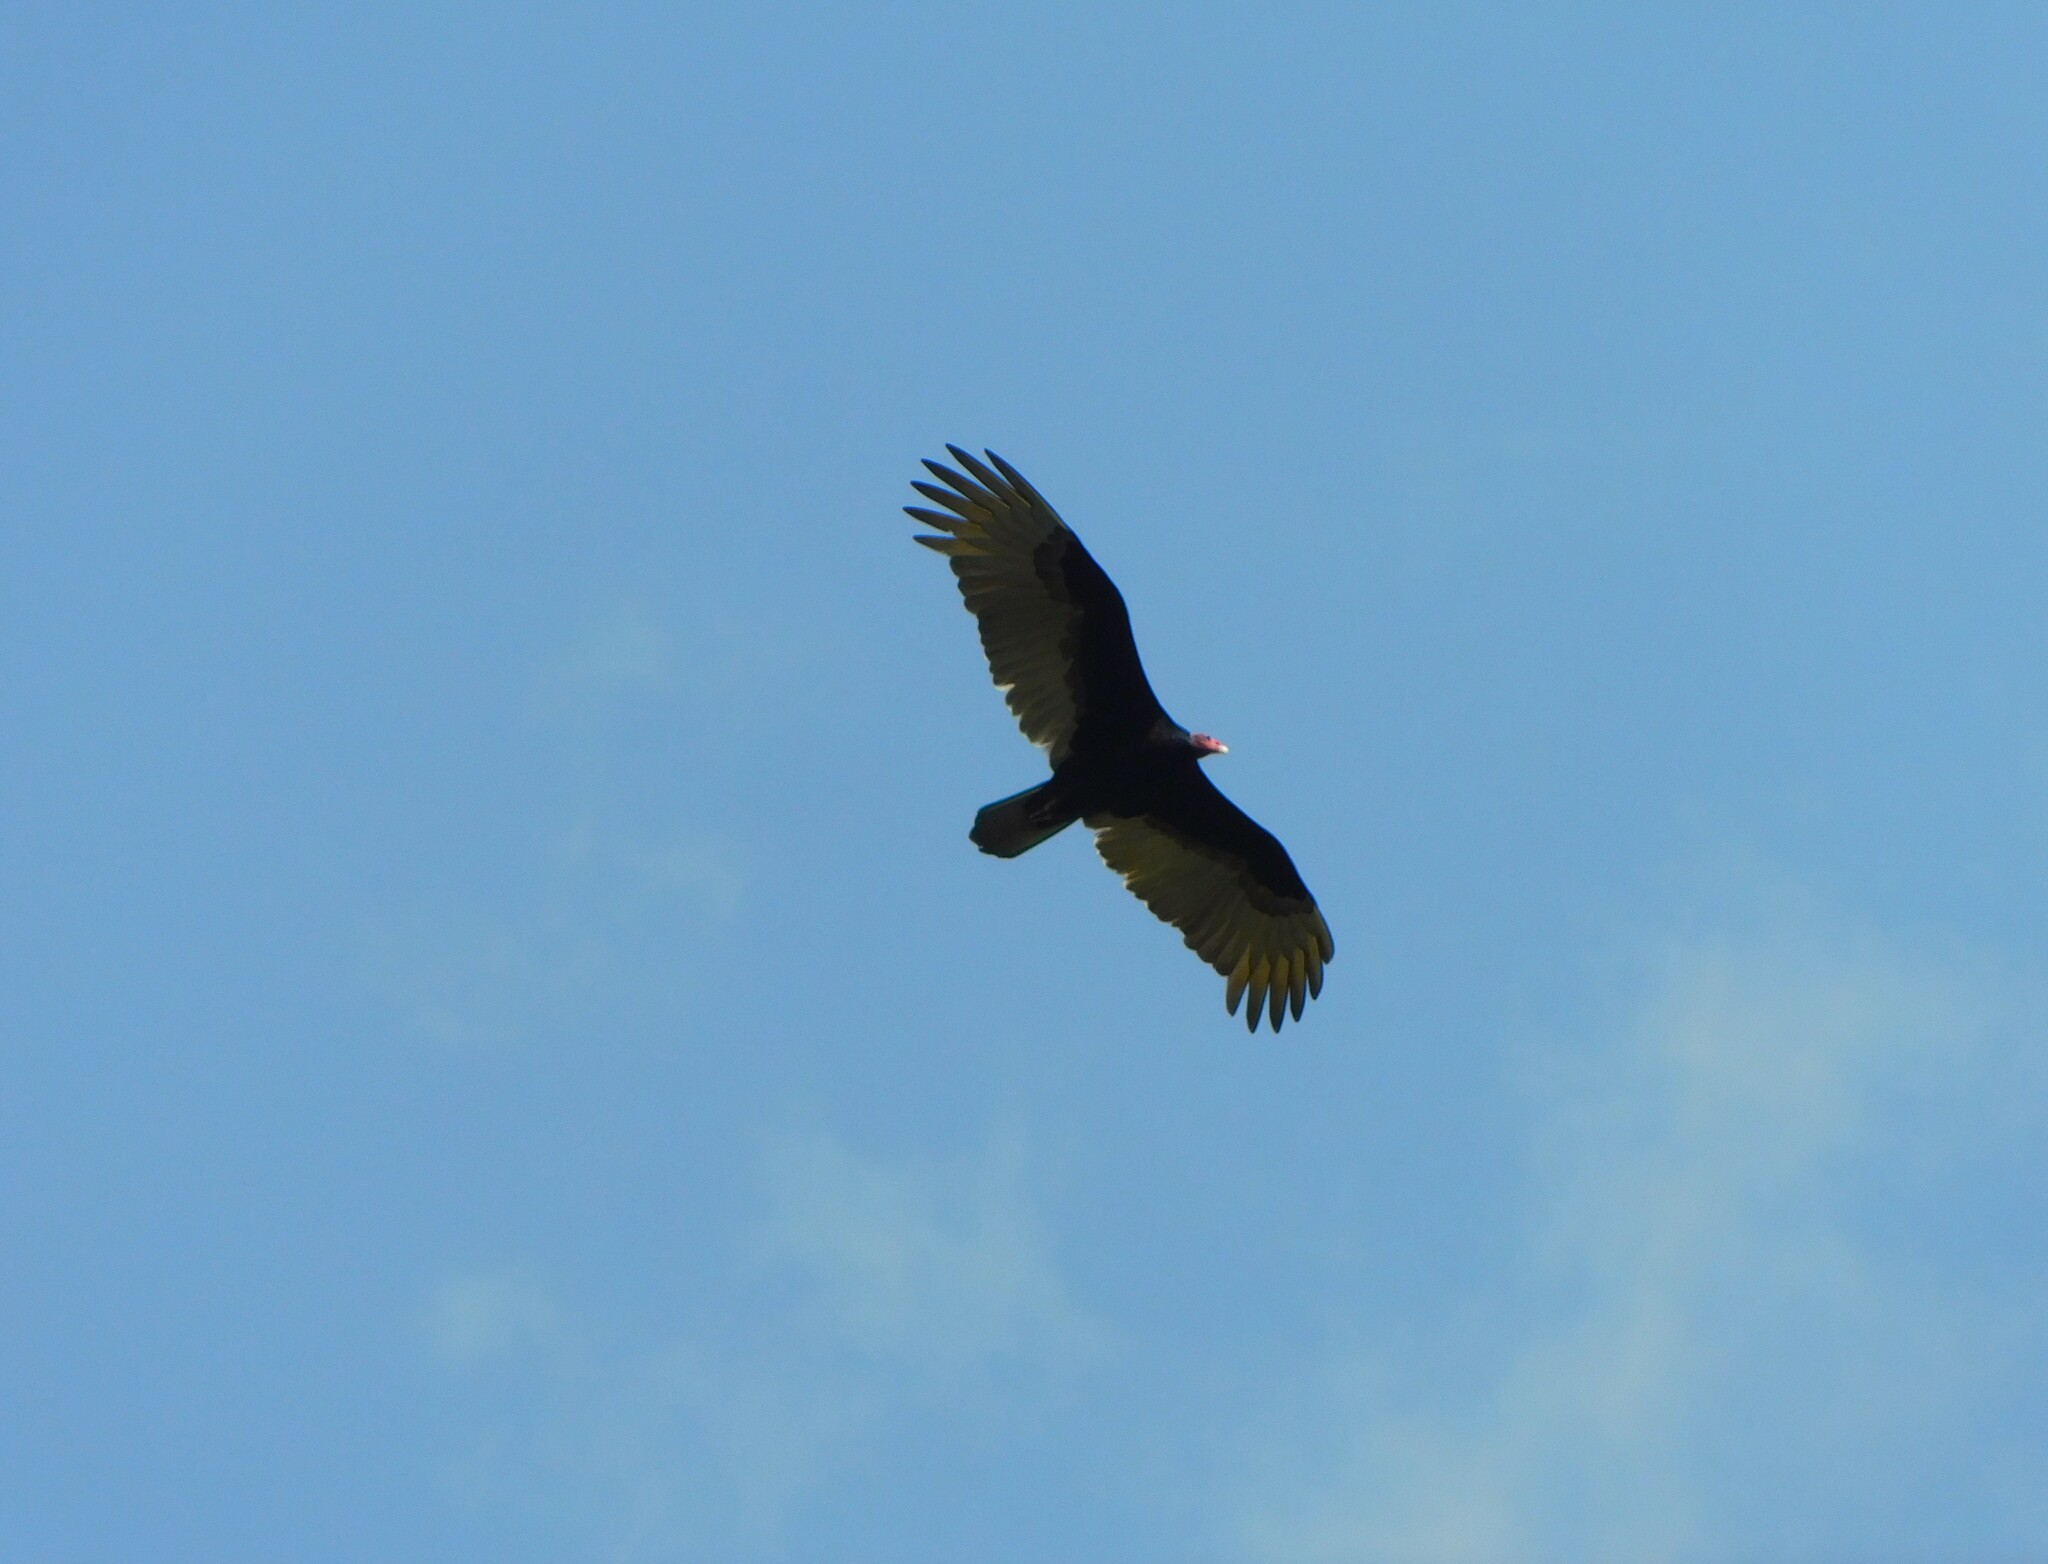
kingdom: Animalia
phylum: Chordata
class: Aves
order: Accipitriformes
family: Cathartidae
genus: Cathartes
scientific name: Cathartes aura
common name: Turkey vulture
